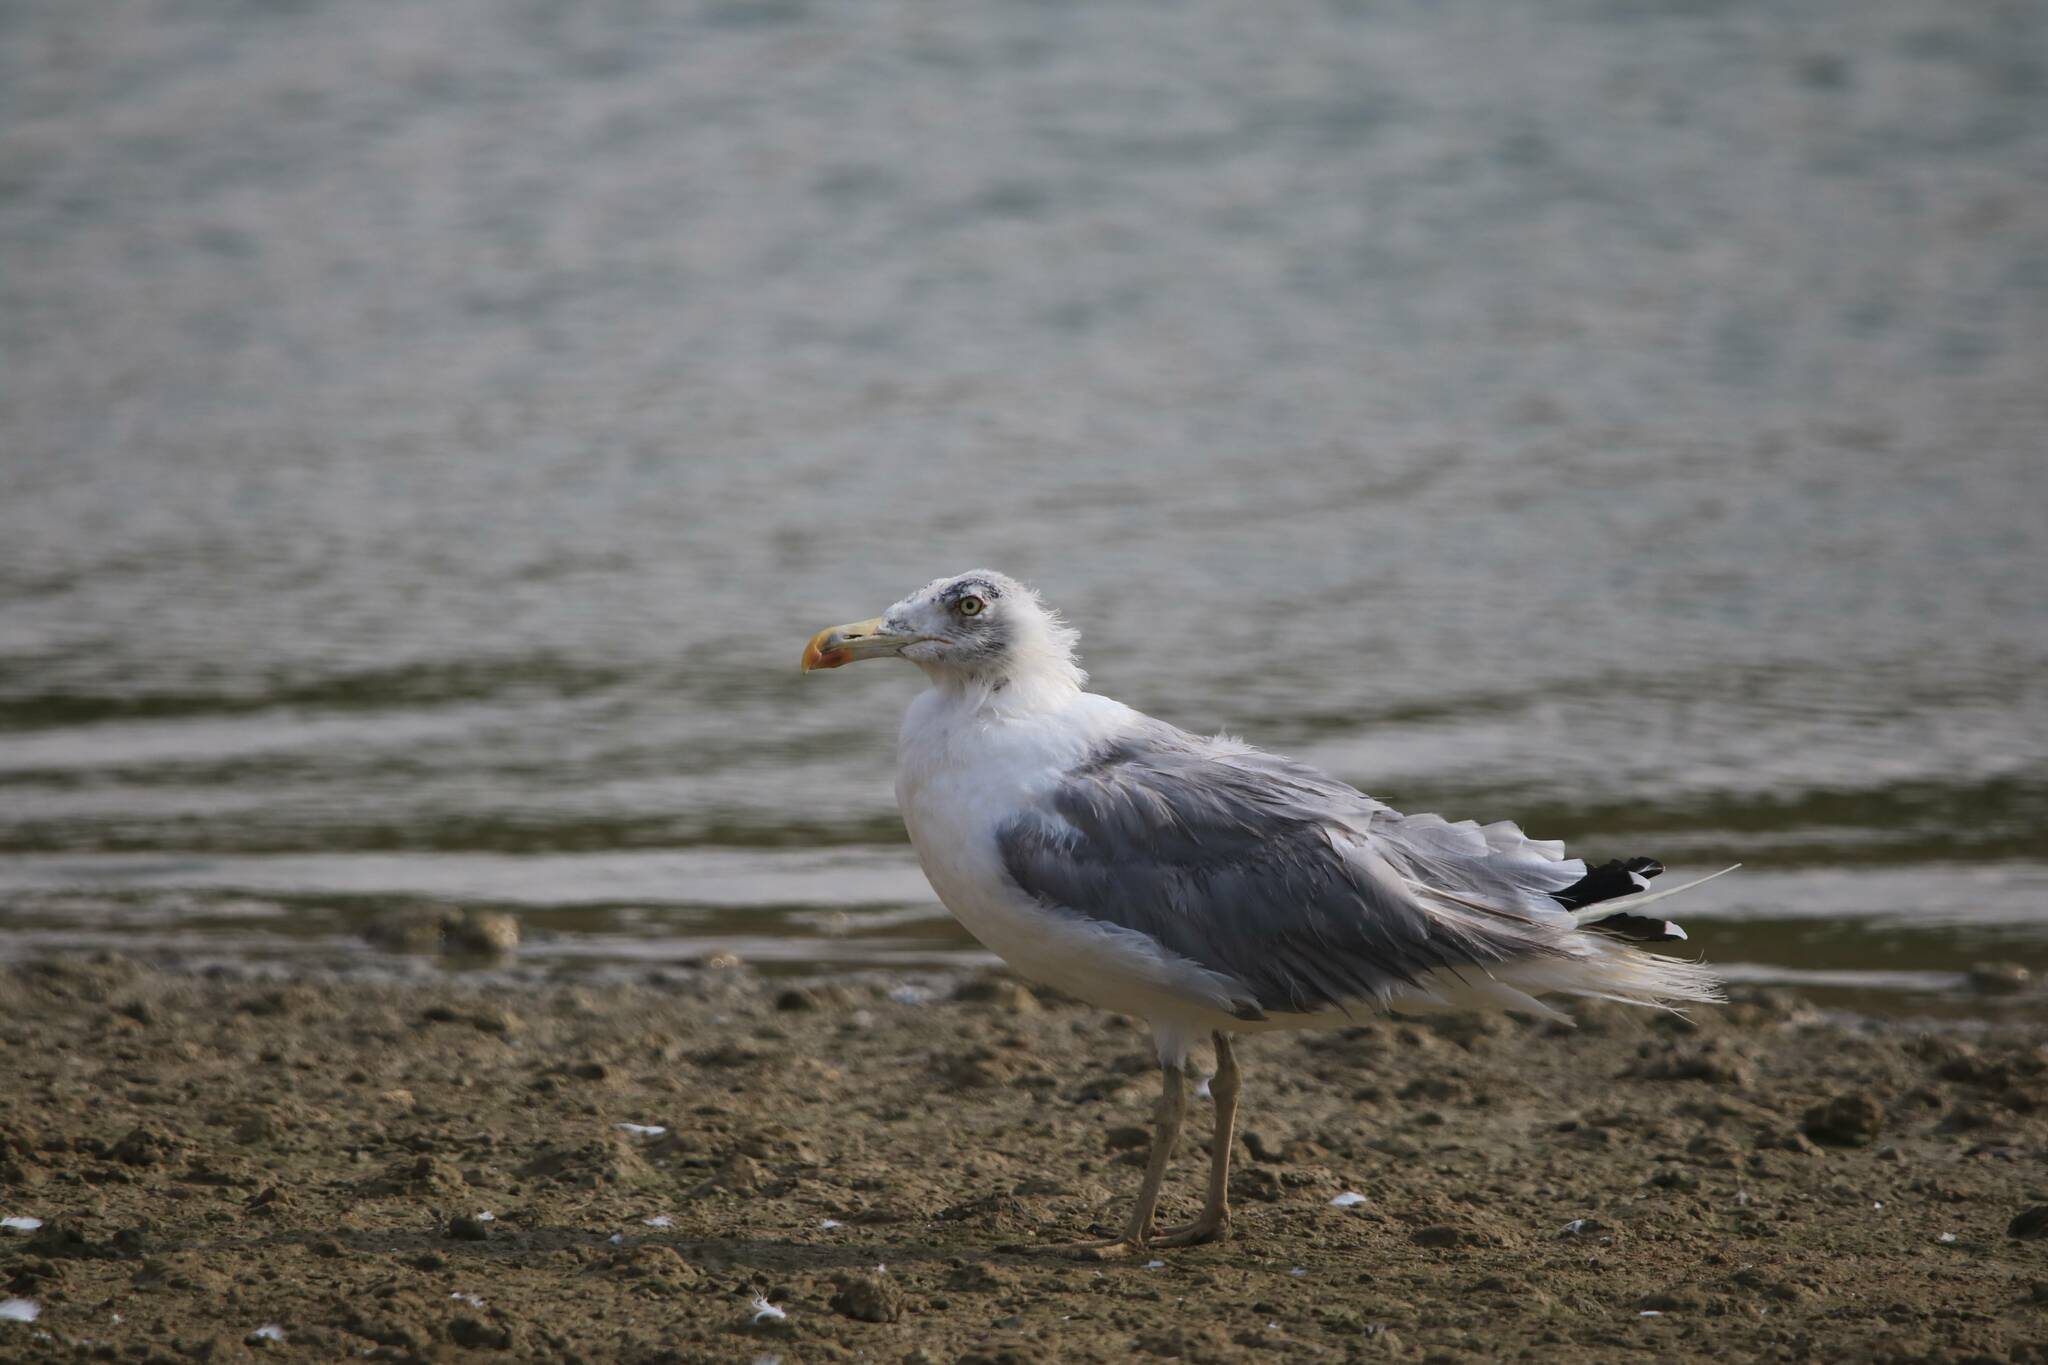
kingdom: Animalia
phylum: Chordata
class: Aves
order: Charadriiformes
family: Laridae
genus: Larus
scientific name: Larus michahellis
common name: Yellow-legged gull
